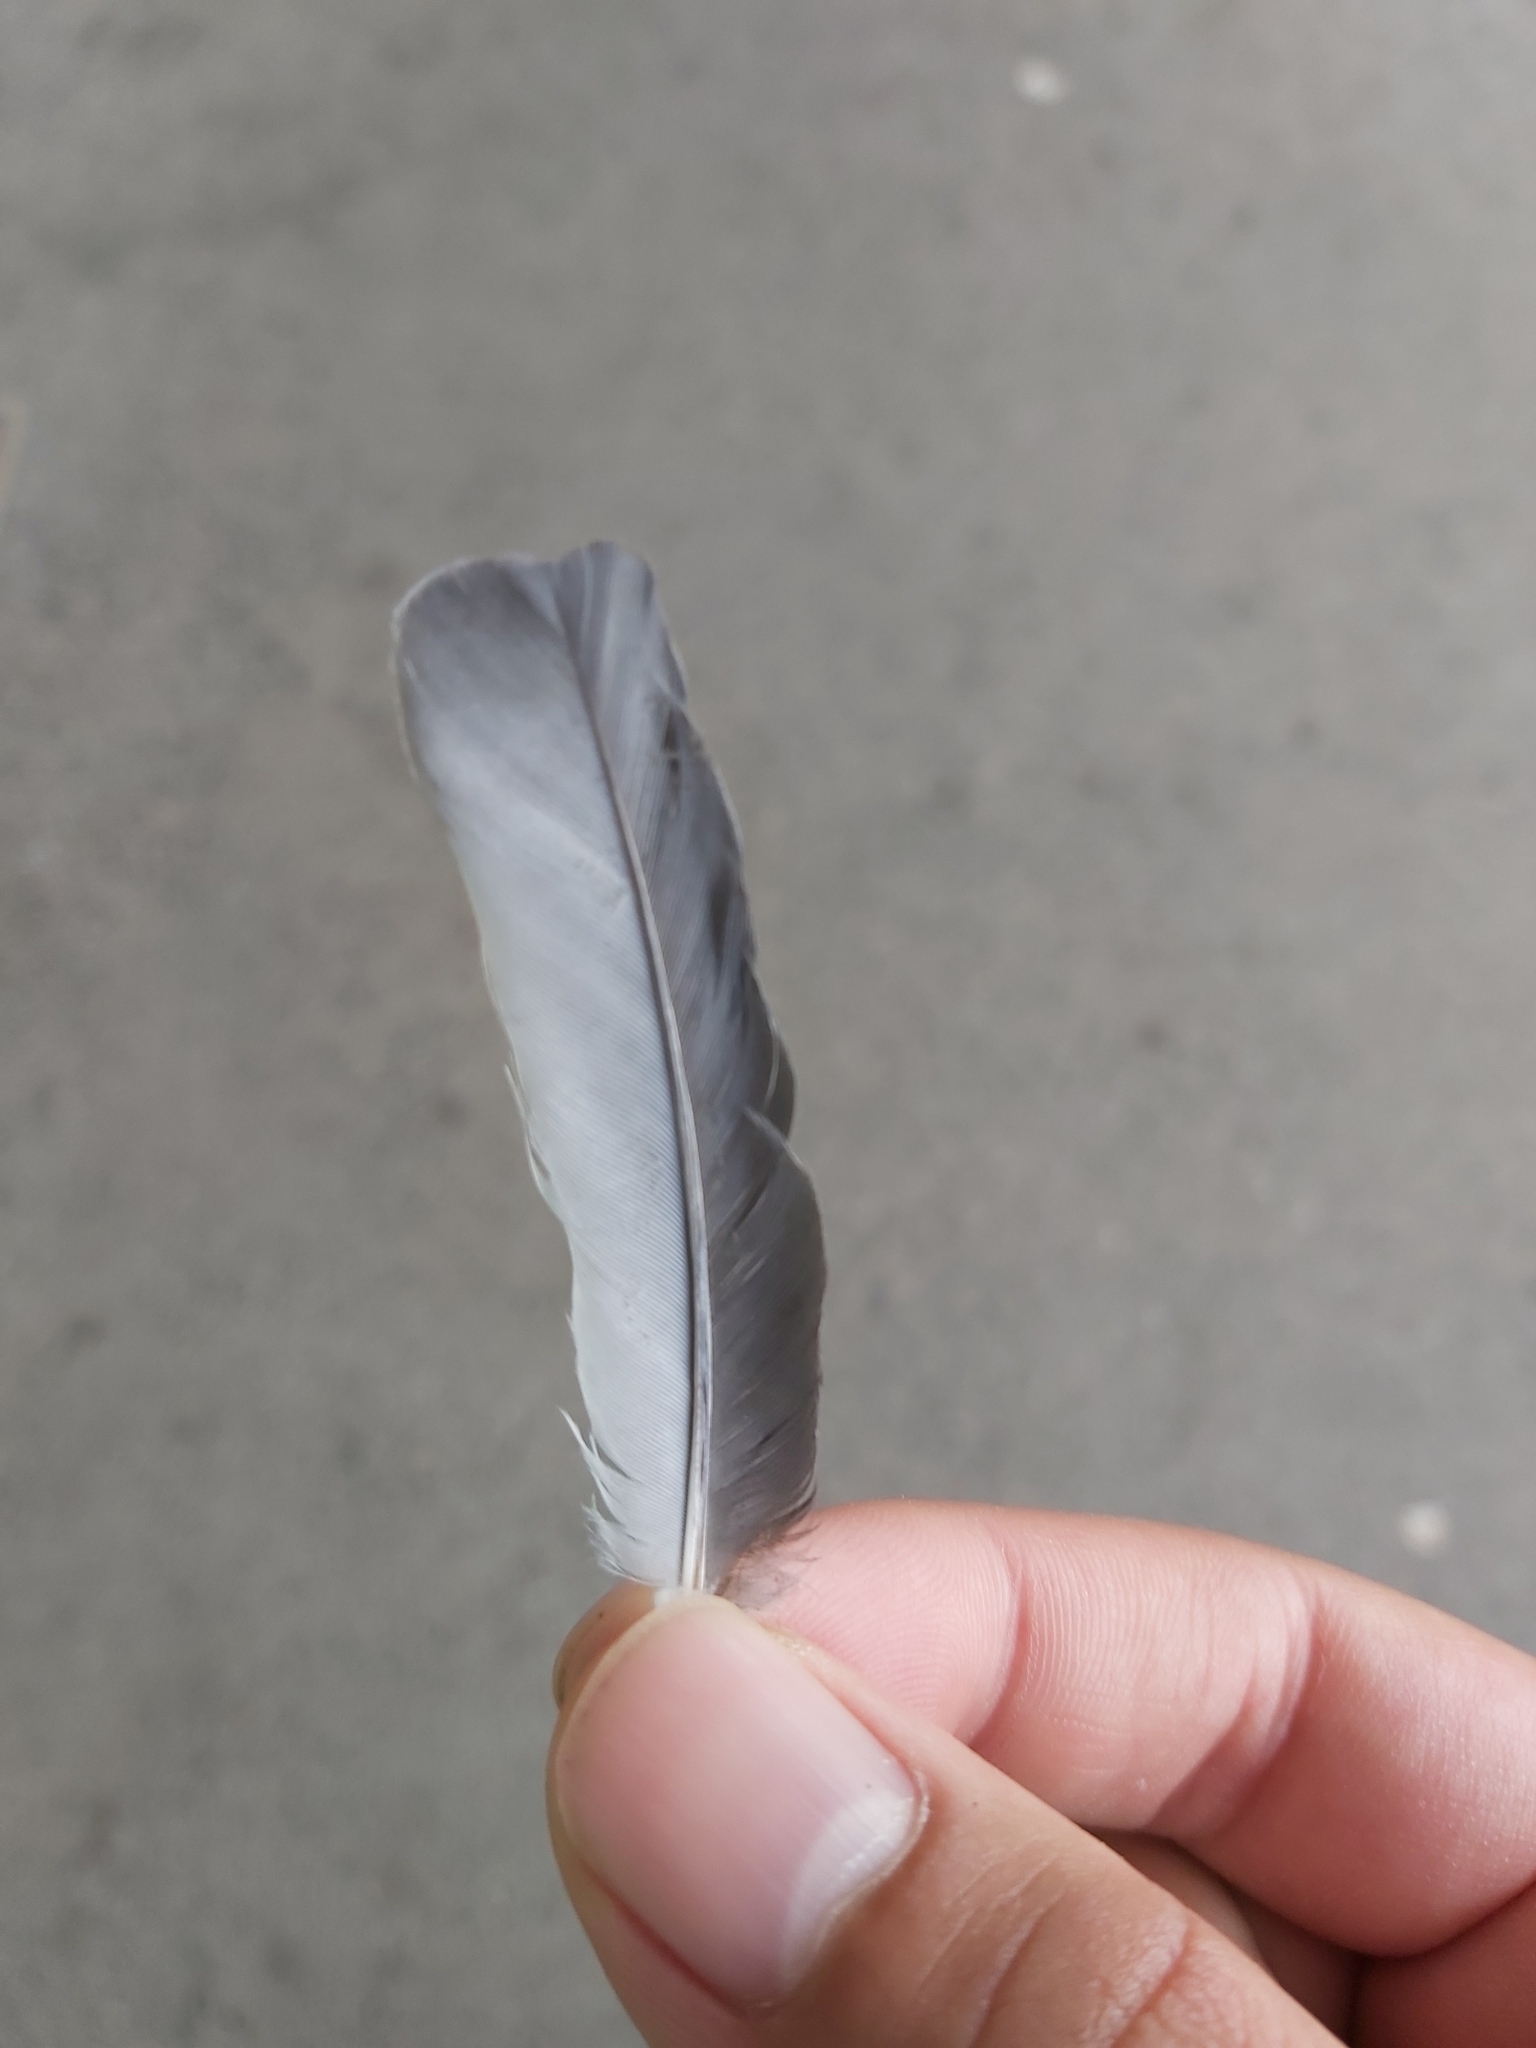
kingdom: Animalia
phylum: Chordata
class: Aves
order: Passeriformes
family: Artamidae
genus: Artamus
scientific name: Artamus leucoryn
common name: White-breasted woodswallow
